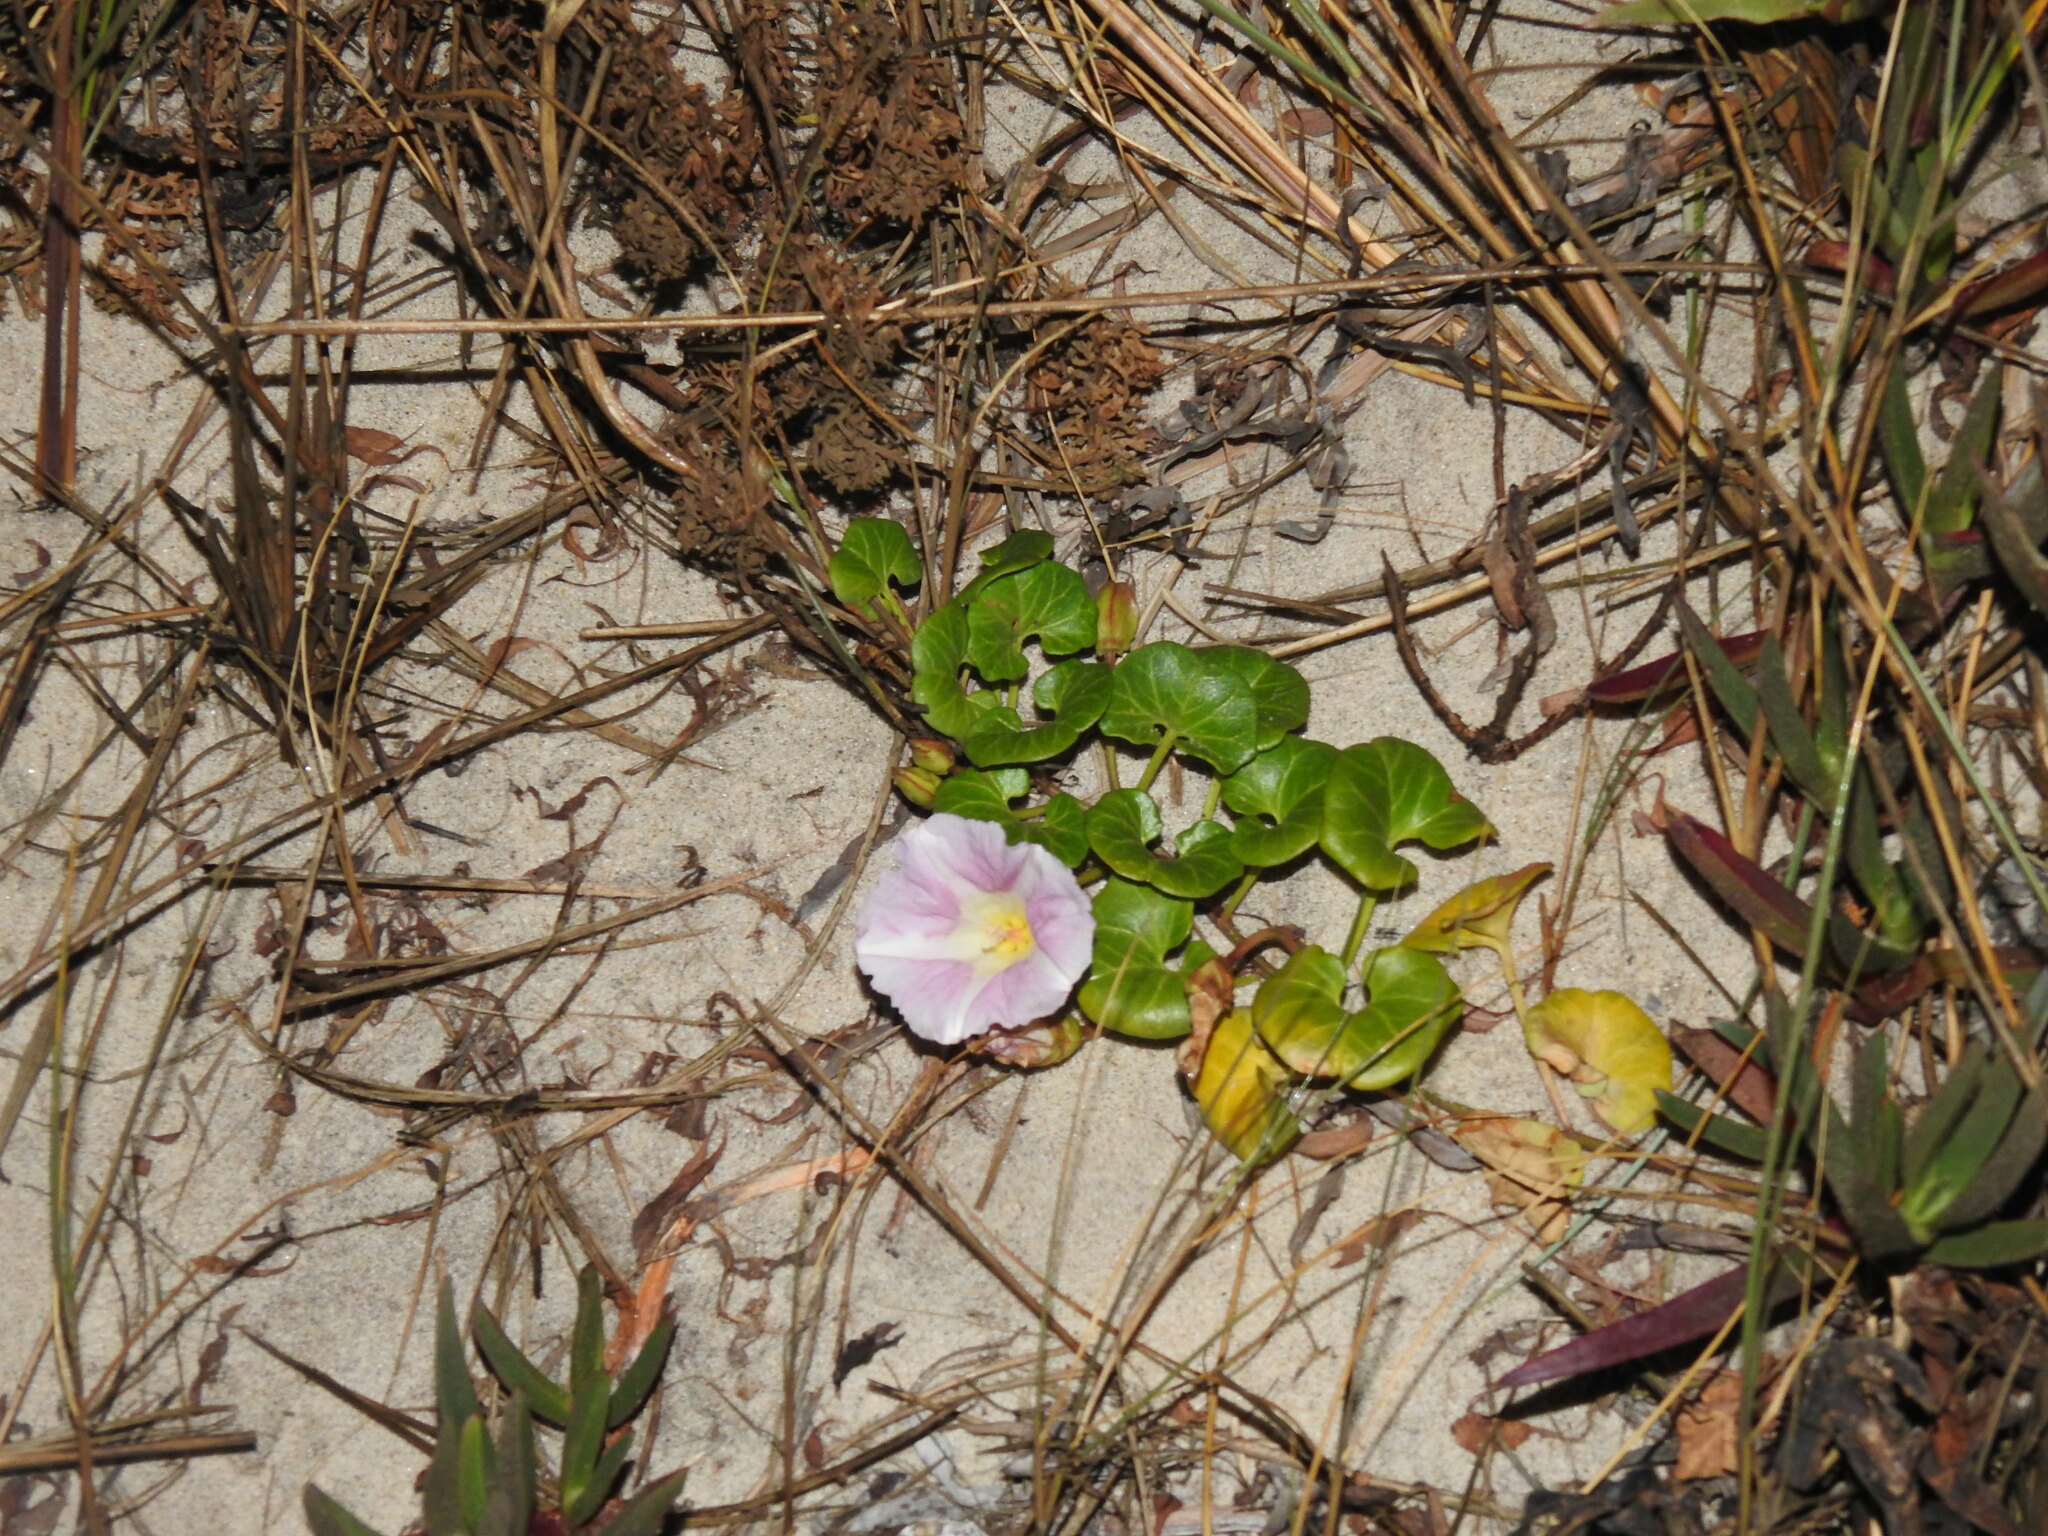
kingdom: Plantae
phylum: Tracheophyta
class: Magnoliopsida
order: Solanales
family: Convolvulaceae
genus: Calystegia
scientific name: Calystegia soldanella
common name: Sea bindweed
